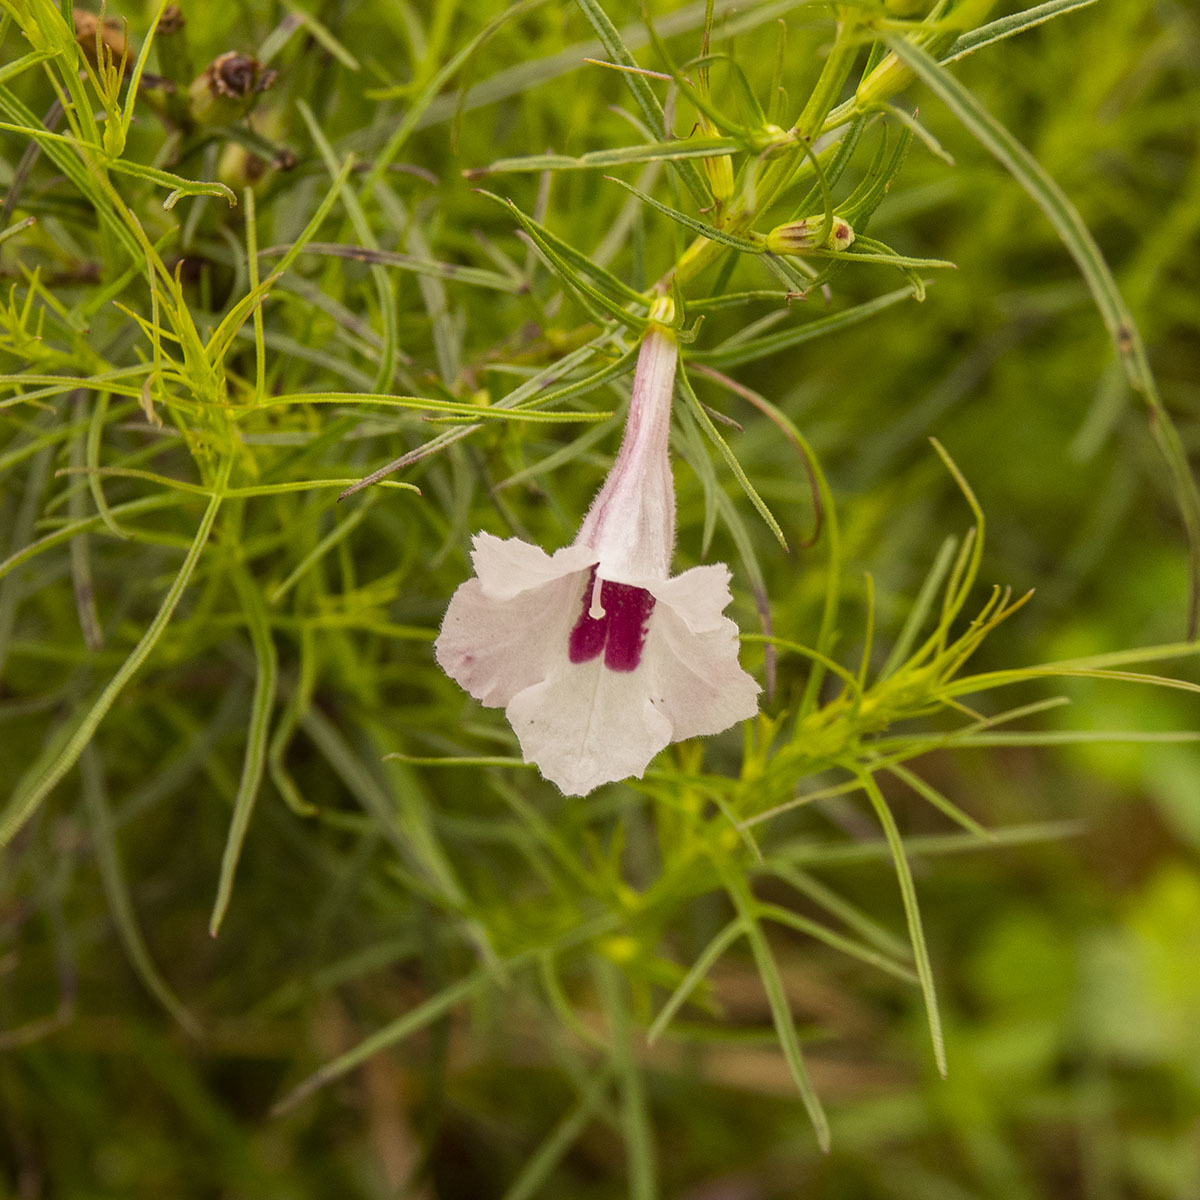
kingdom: Plantae
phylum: Tracheophyta
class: Magnoliopsida
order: Lamiales
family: Orobanchaceae
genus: Parasopubia
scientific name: Parasopubia delphiniifolia
